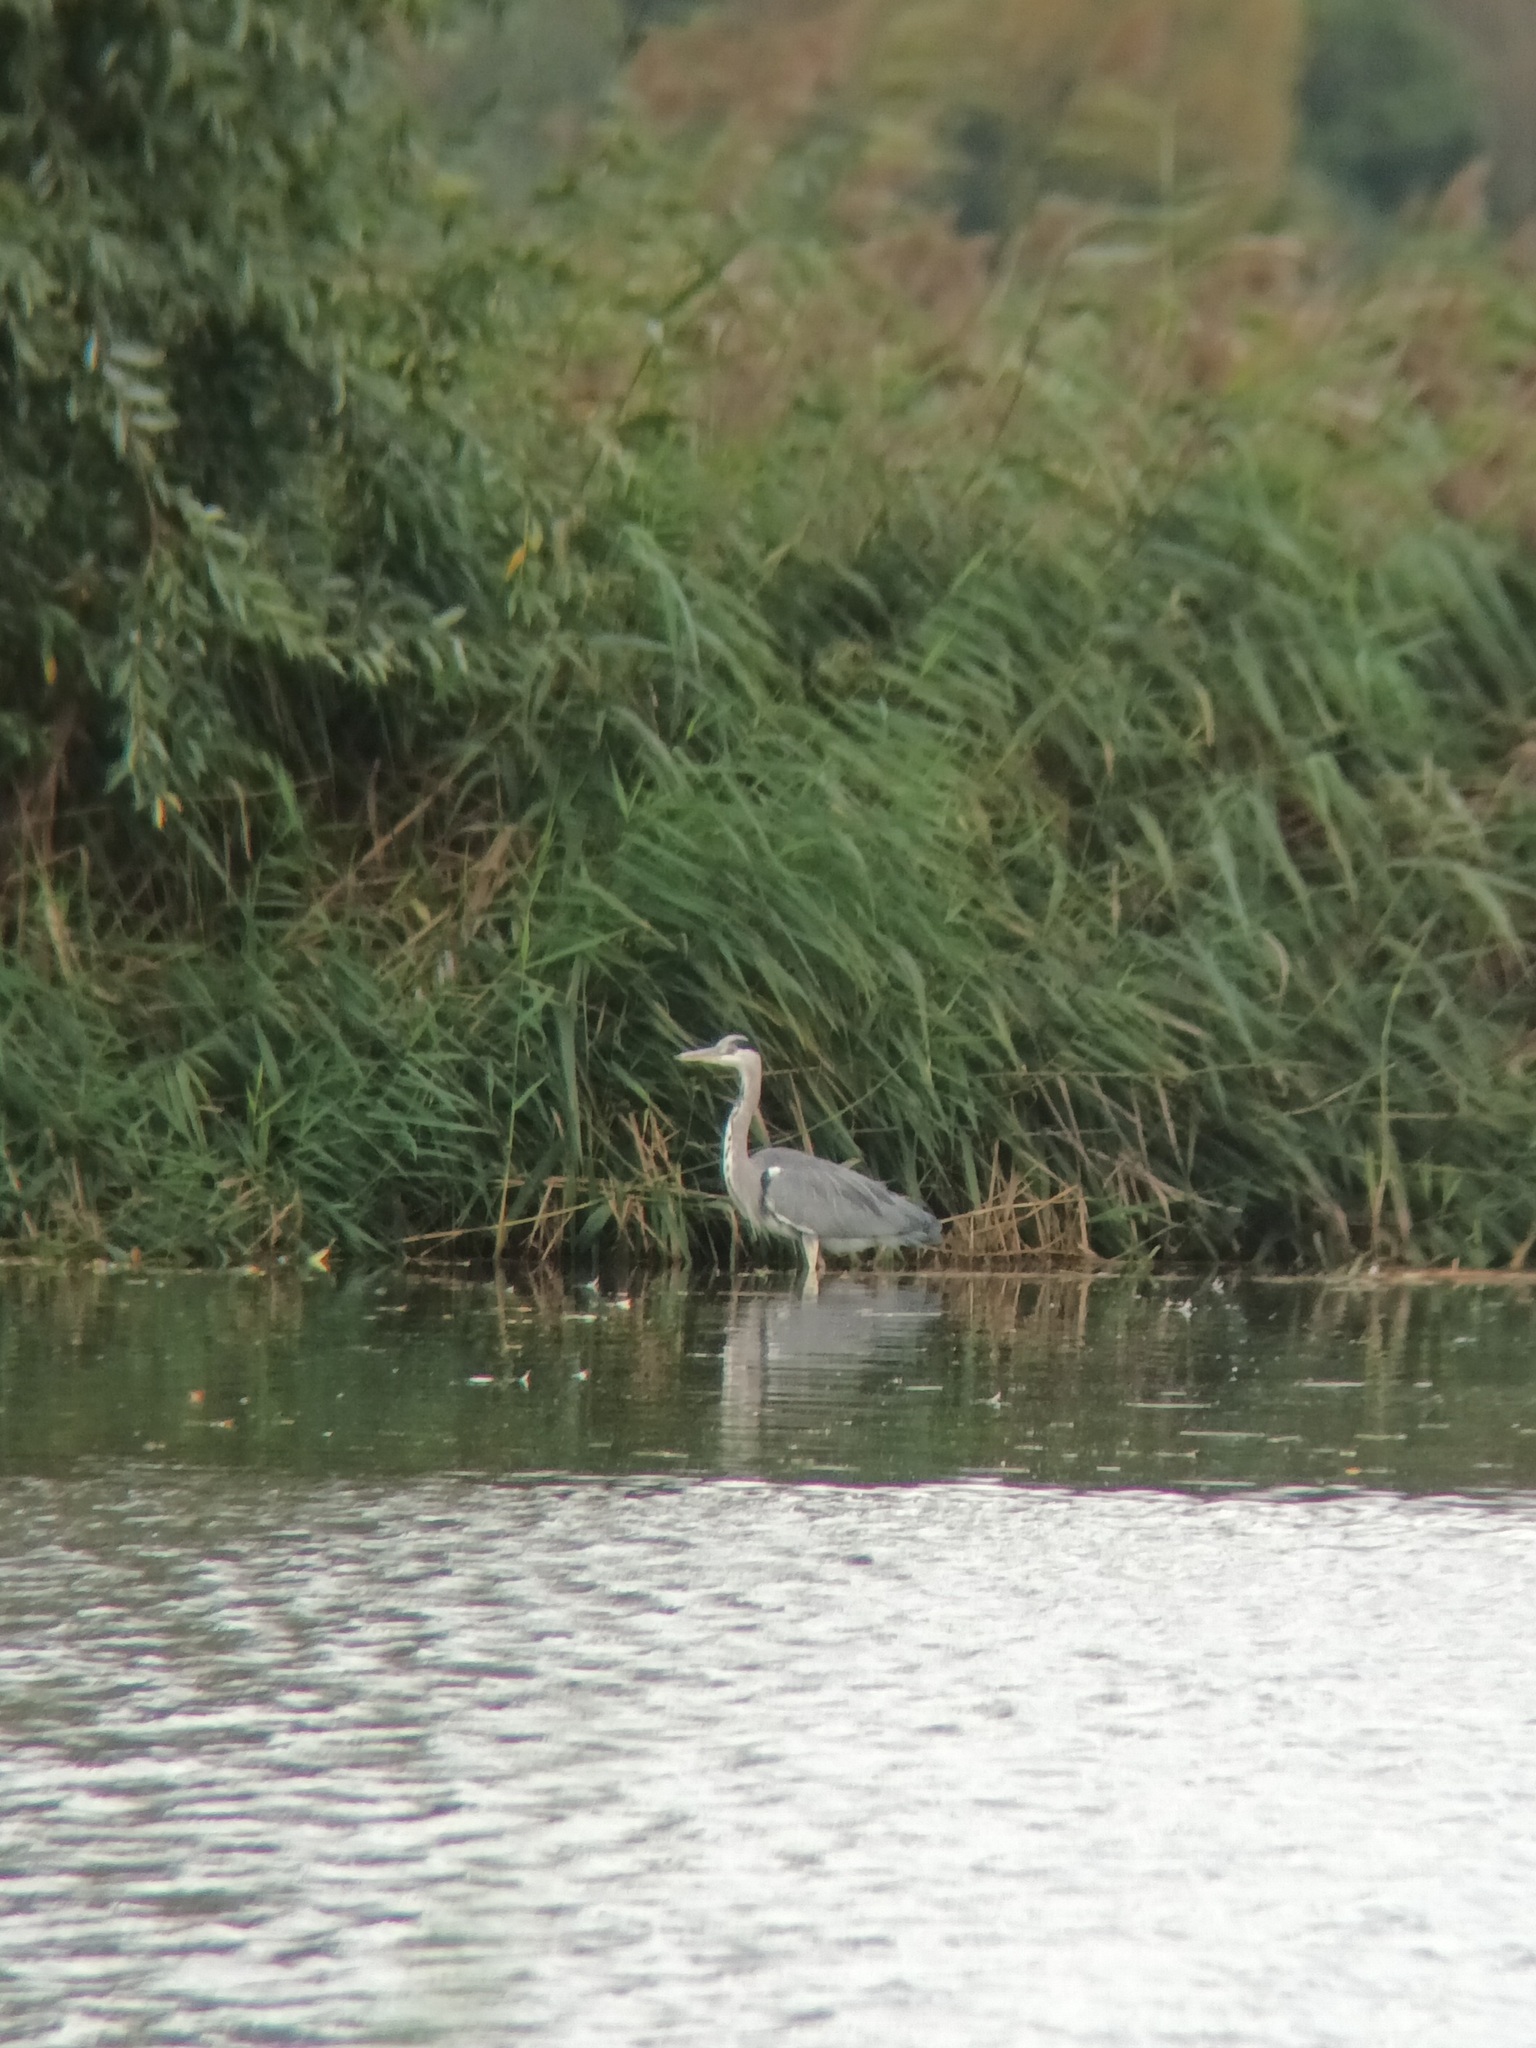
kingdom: Animalia
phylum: Chordata
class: Aves
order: Pelecaniformes
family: Ardeidae
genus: Ardea
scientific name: Ardea cinerea
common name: Grey heron
